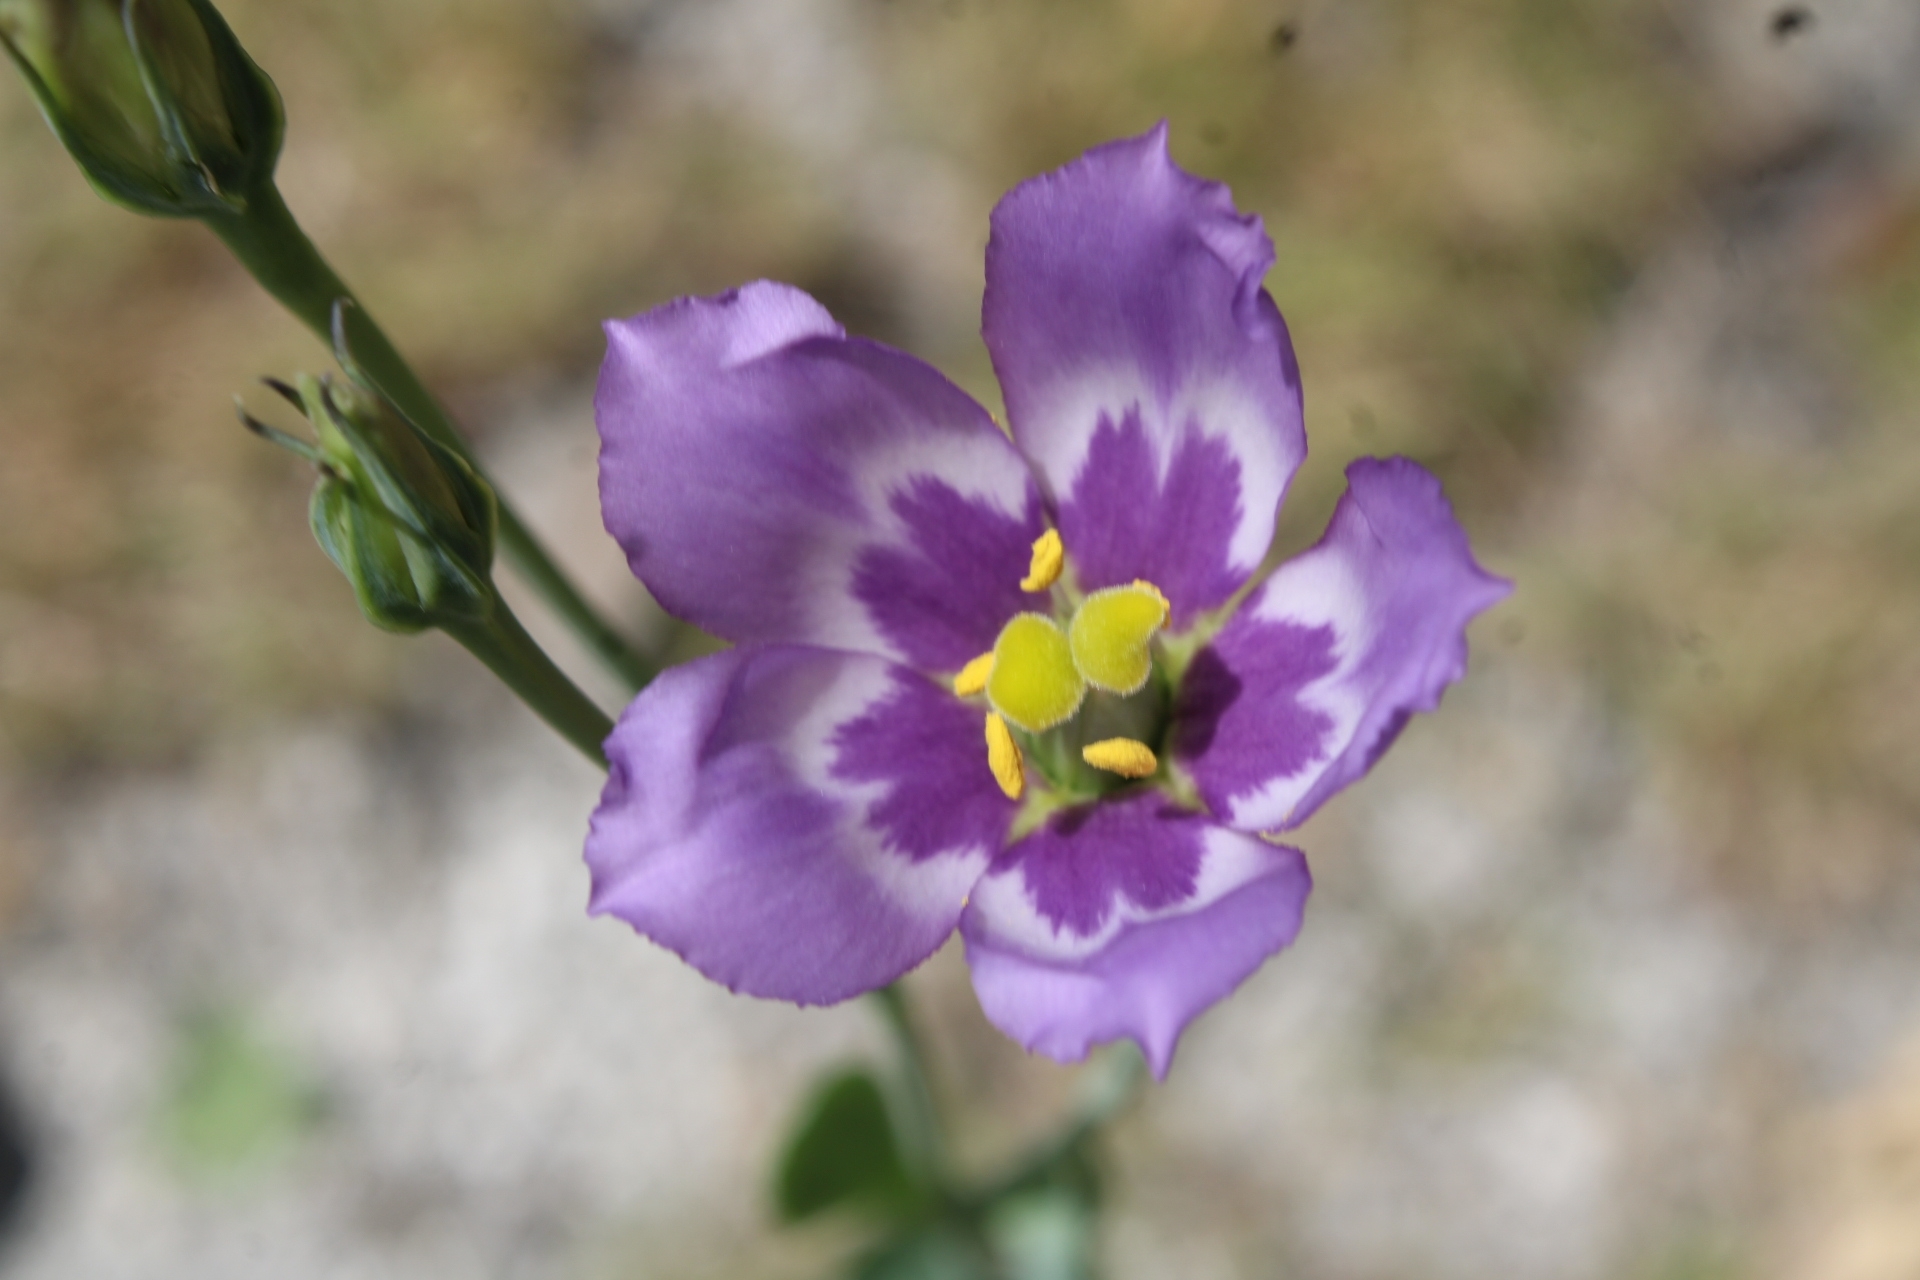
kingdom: Plantae
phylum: Tracheophyta
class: Magnoliopsida
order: Gentianales
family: Gentianaceae
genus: Eustoma
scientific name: Eustoma exaltatum
